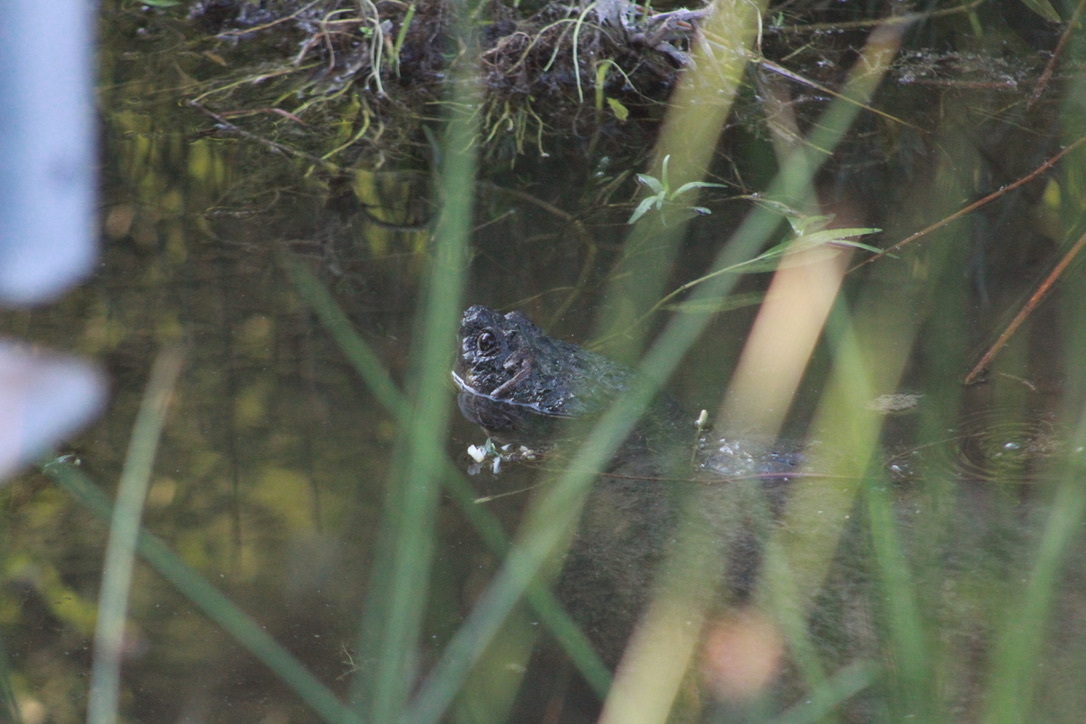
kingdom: Animalia
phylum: Chordata
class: Testudines
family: Chelydridae
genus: Chelydra
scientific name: Chelydra serpentina
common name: Common snapping turtle
